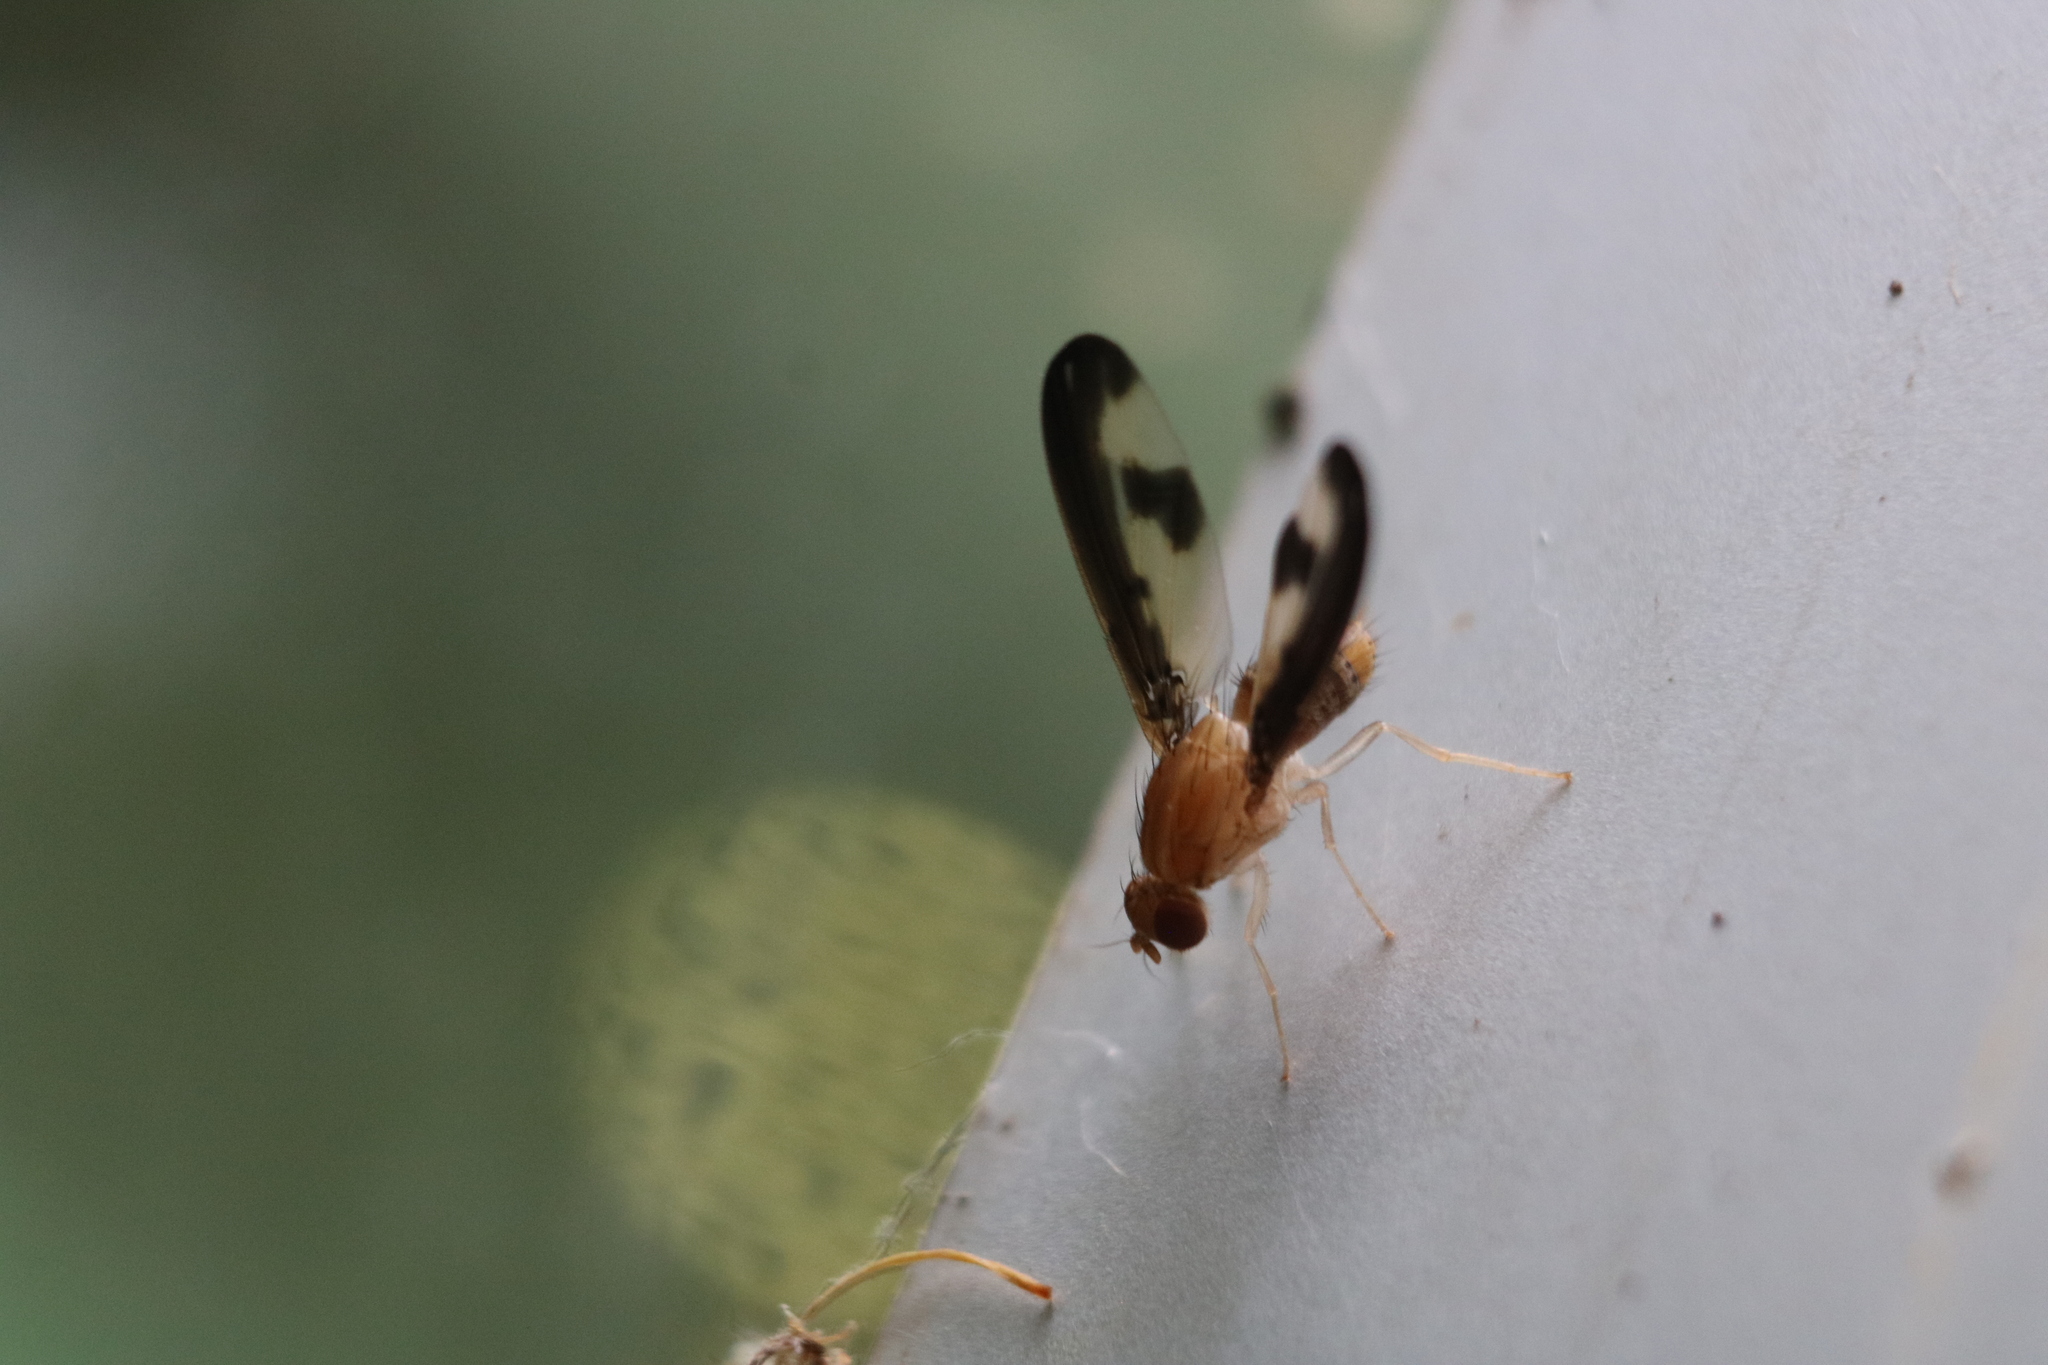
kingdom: Animalia
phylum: Arthropoda
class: Insecta
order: Diptera
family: Pallopteridae
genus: Toxonevra
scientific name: Toxonevra superba
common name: Antlered flutter fly
